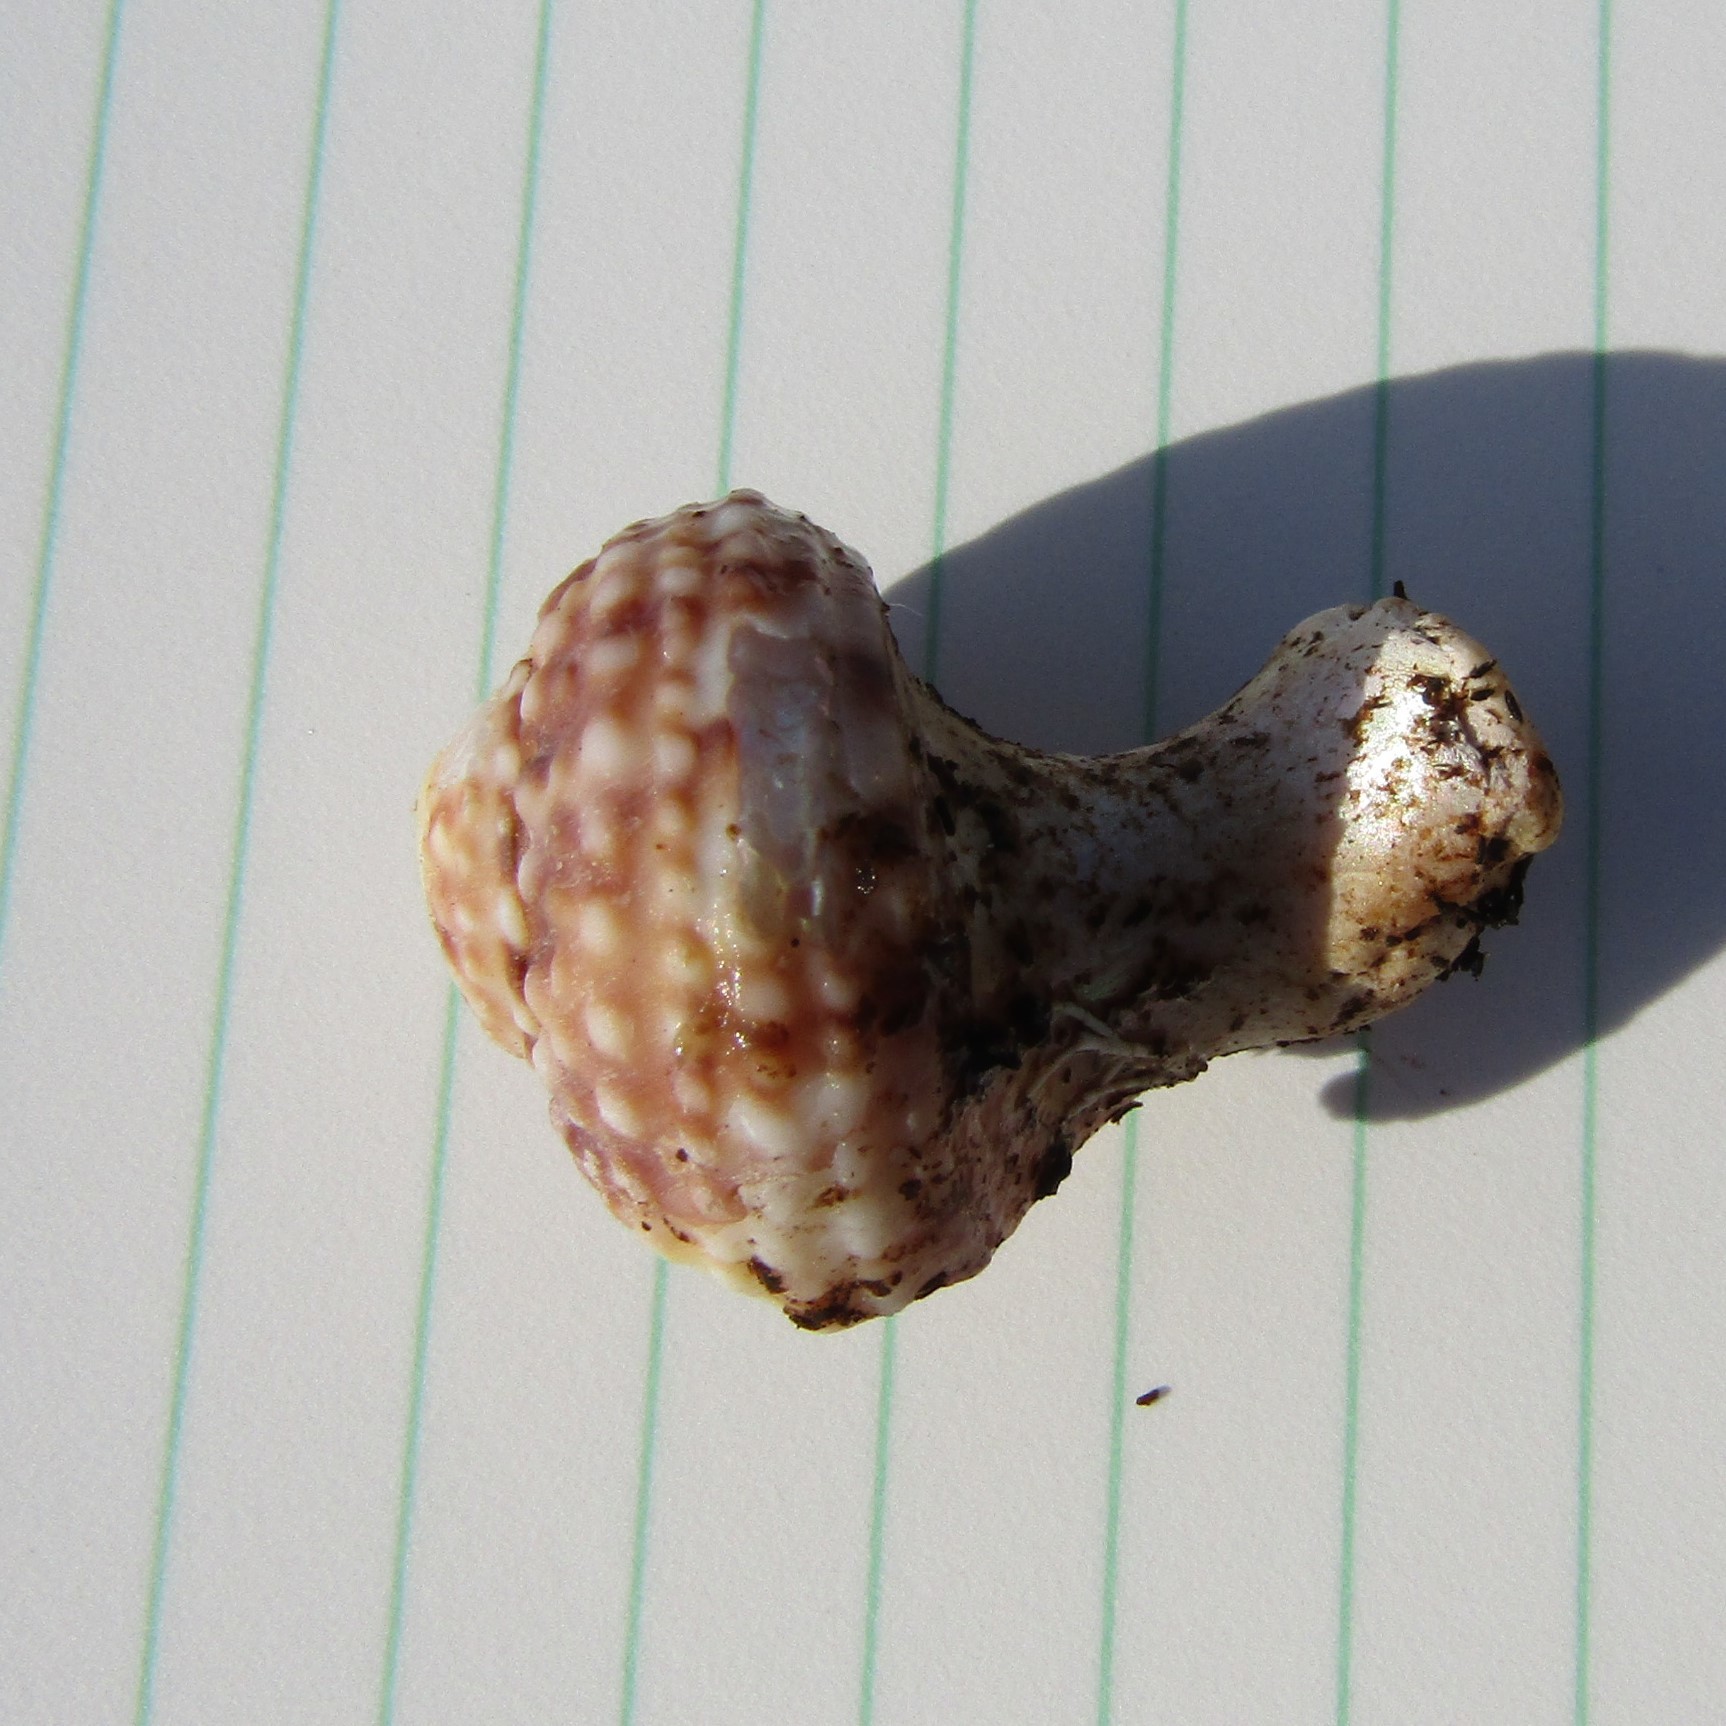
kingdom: Animalia
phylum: Mollusca
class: Gastropoda
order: Trochida
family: Turbinidae
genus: Modelia
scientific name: Modelia granosa
